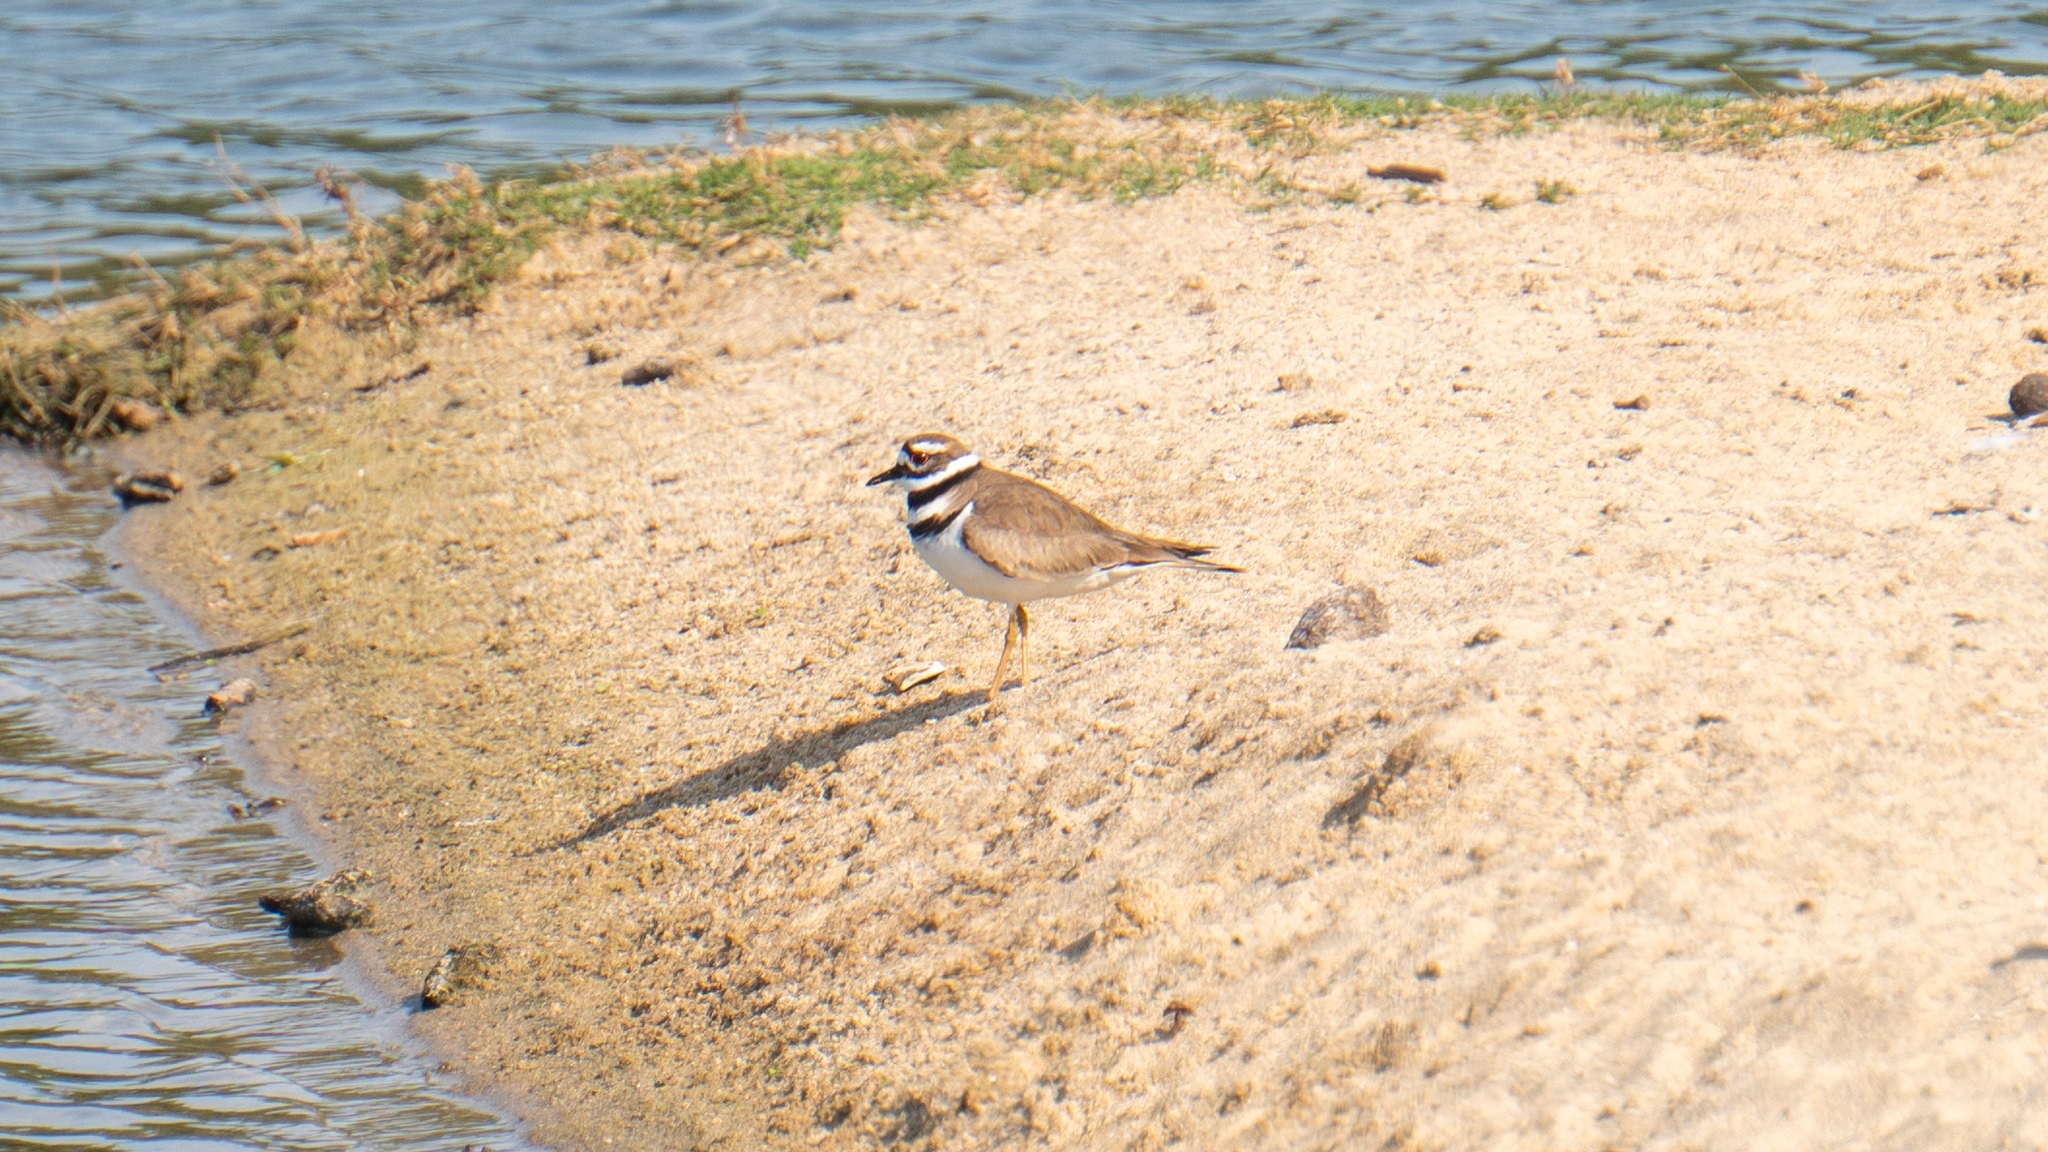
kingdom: Animalia
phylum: Chordata
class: Aves
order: Charadriiformes
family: Charadriidae
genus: Charadrius
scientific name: Charadrius vociferus
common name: Killdeer
